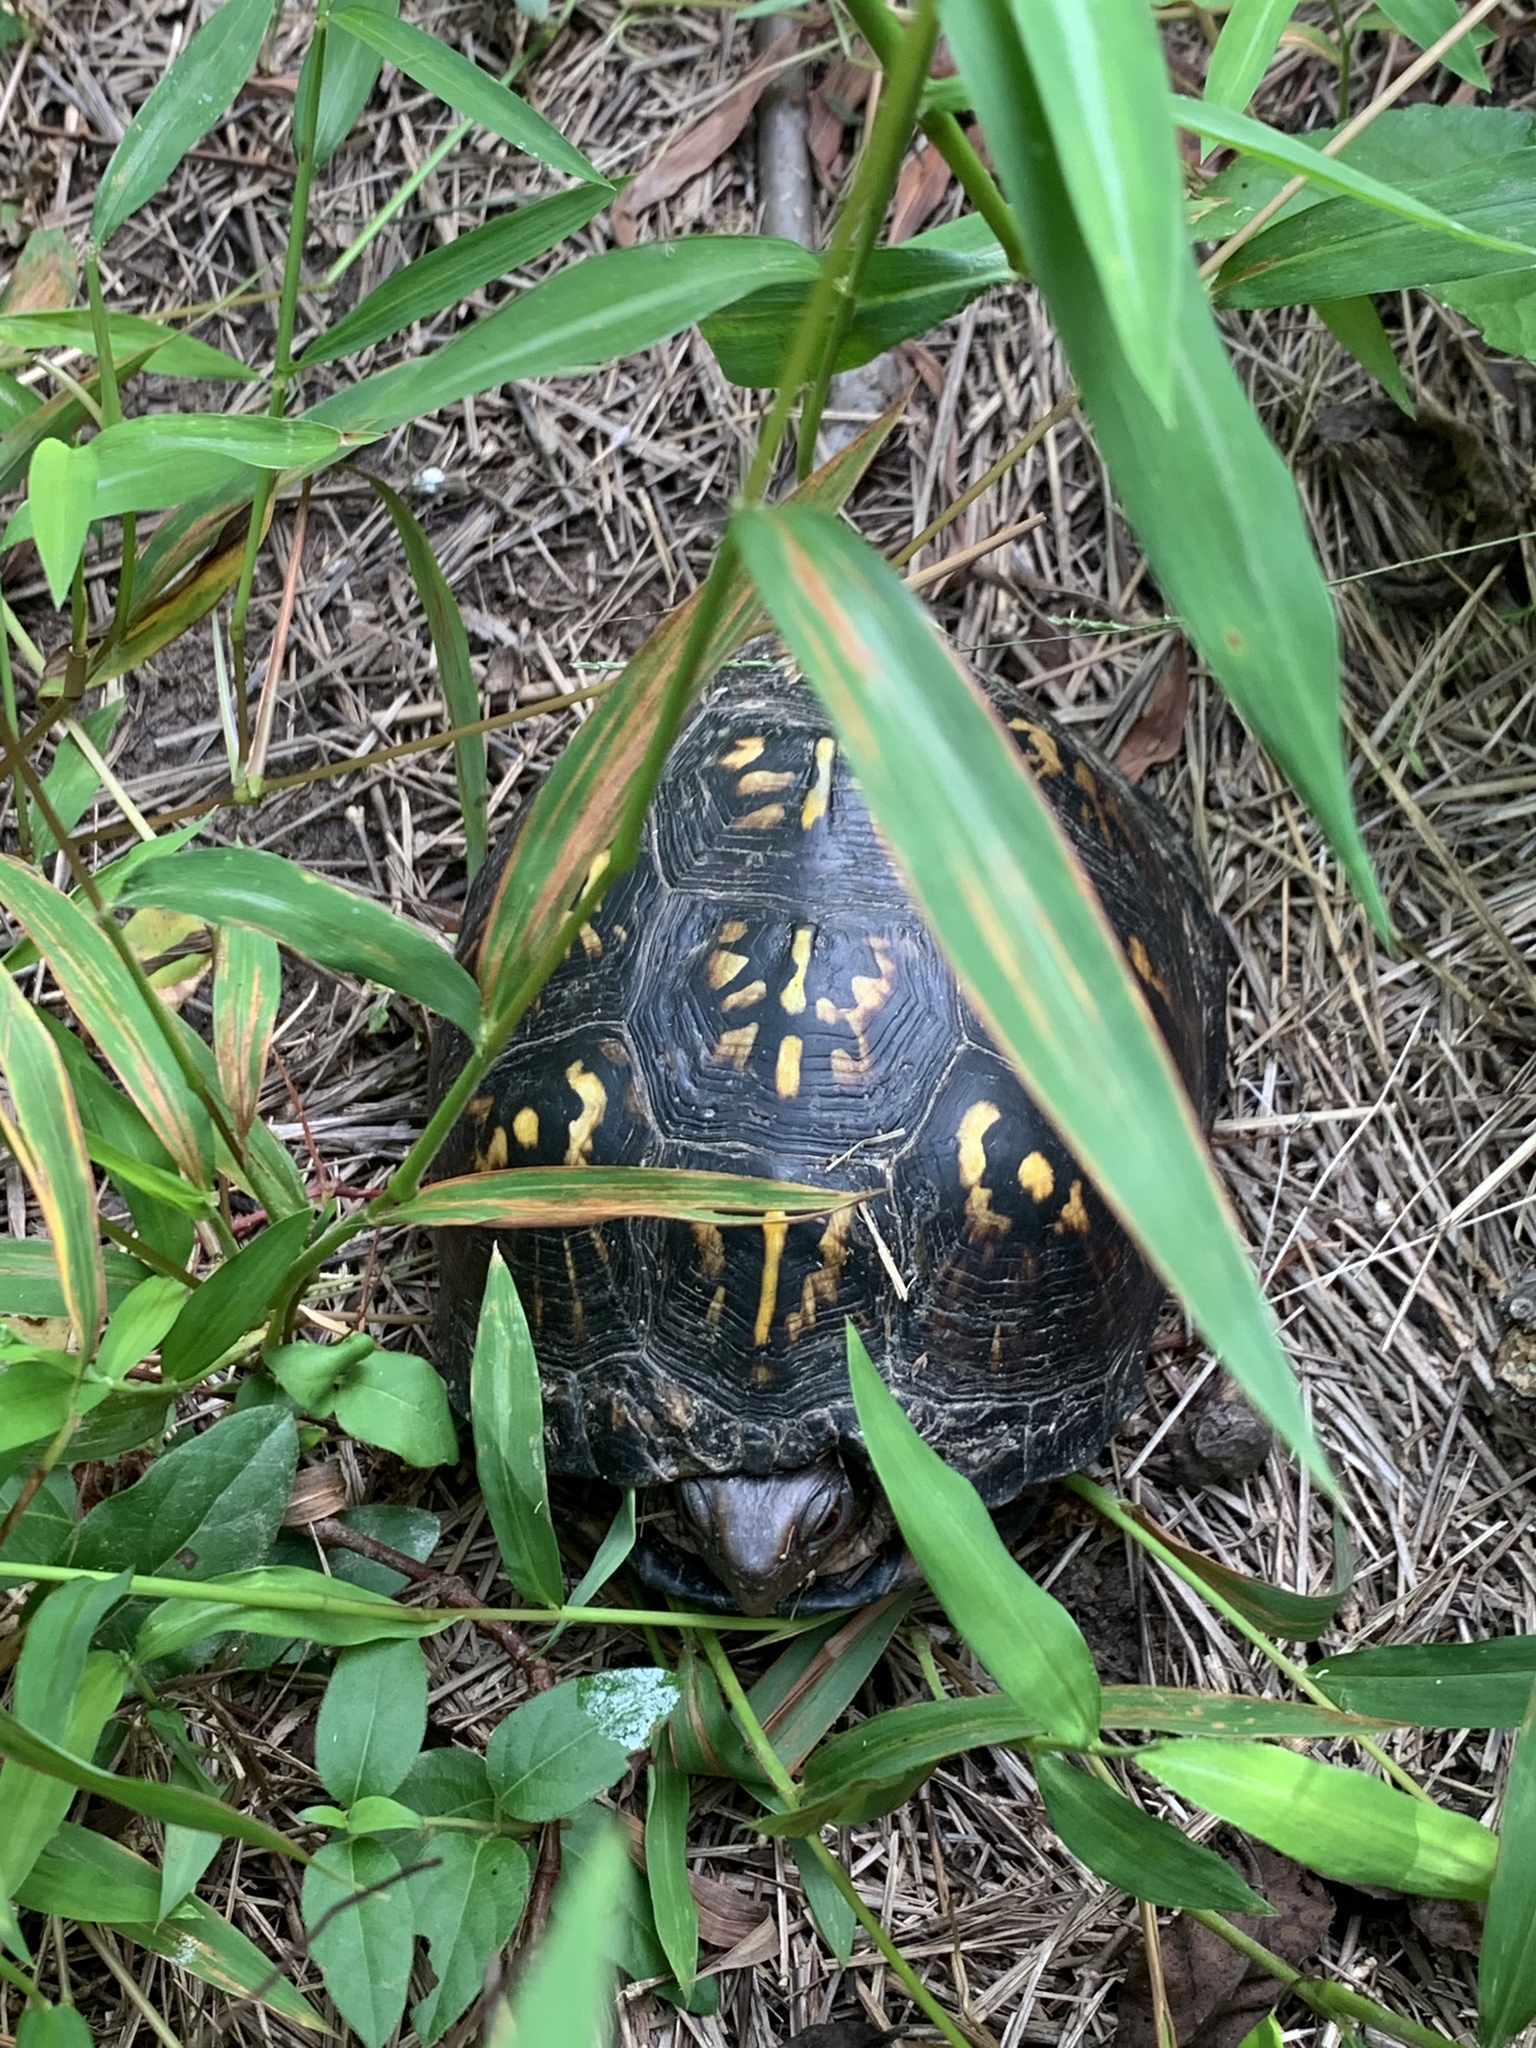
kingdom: Animalia
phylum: Chordata
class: Testudines
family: Emydidae
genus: Terrapene
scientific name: Terrapene carolina
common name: Common box turtle
